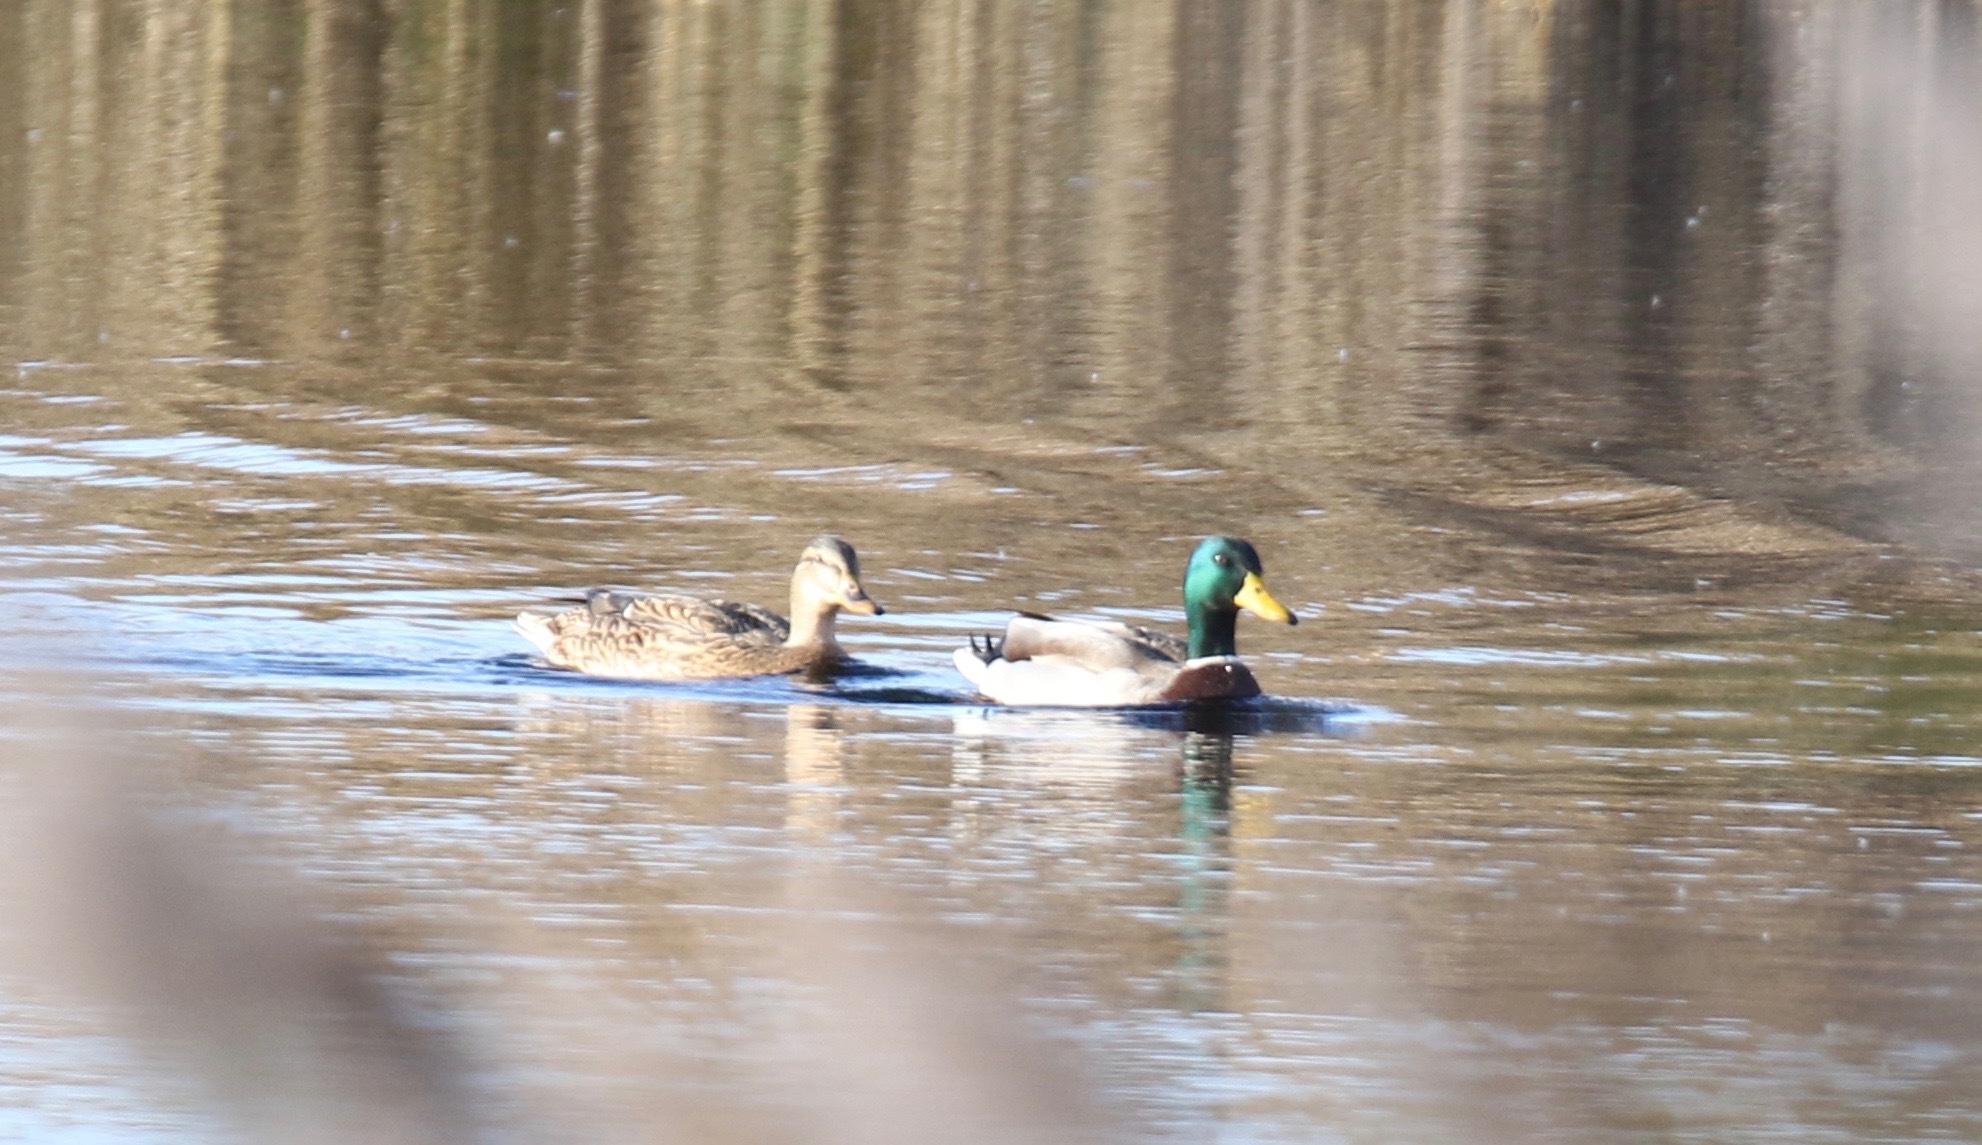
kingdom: Animalia
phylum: Chordata
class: Aves
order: Anseriformes
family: Anatidae
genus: Anas
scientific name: Anas platyrhynchos
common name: Mallard
